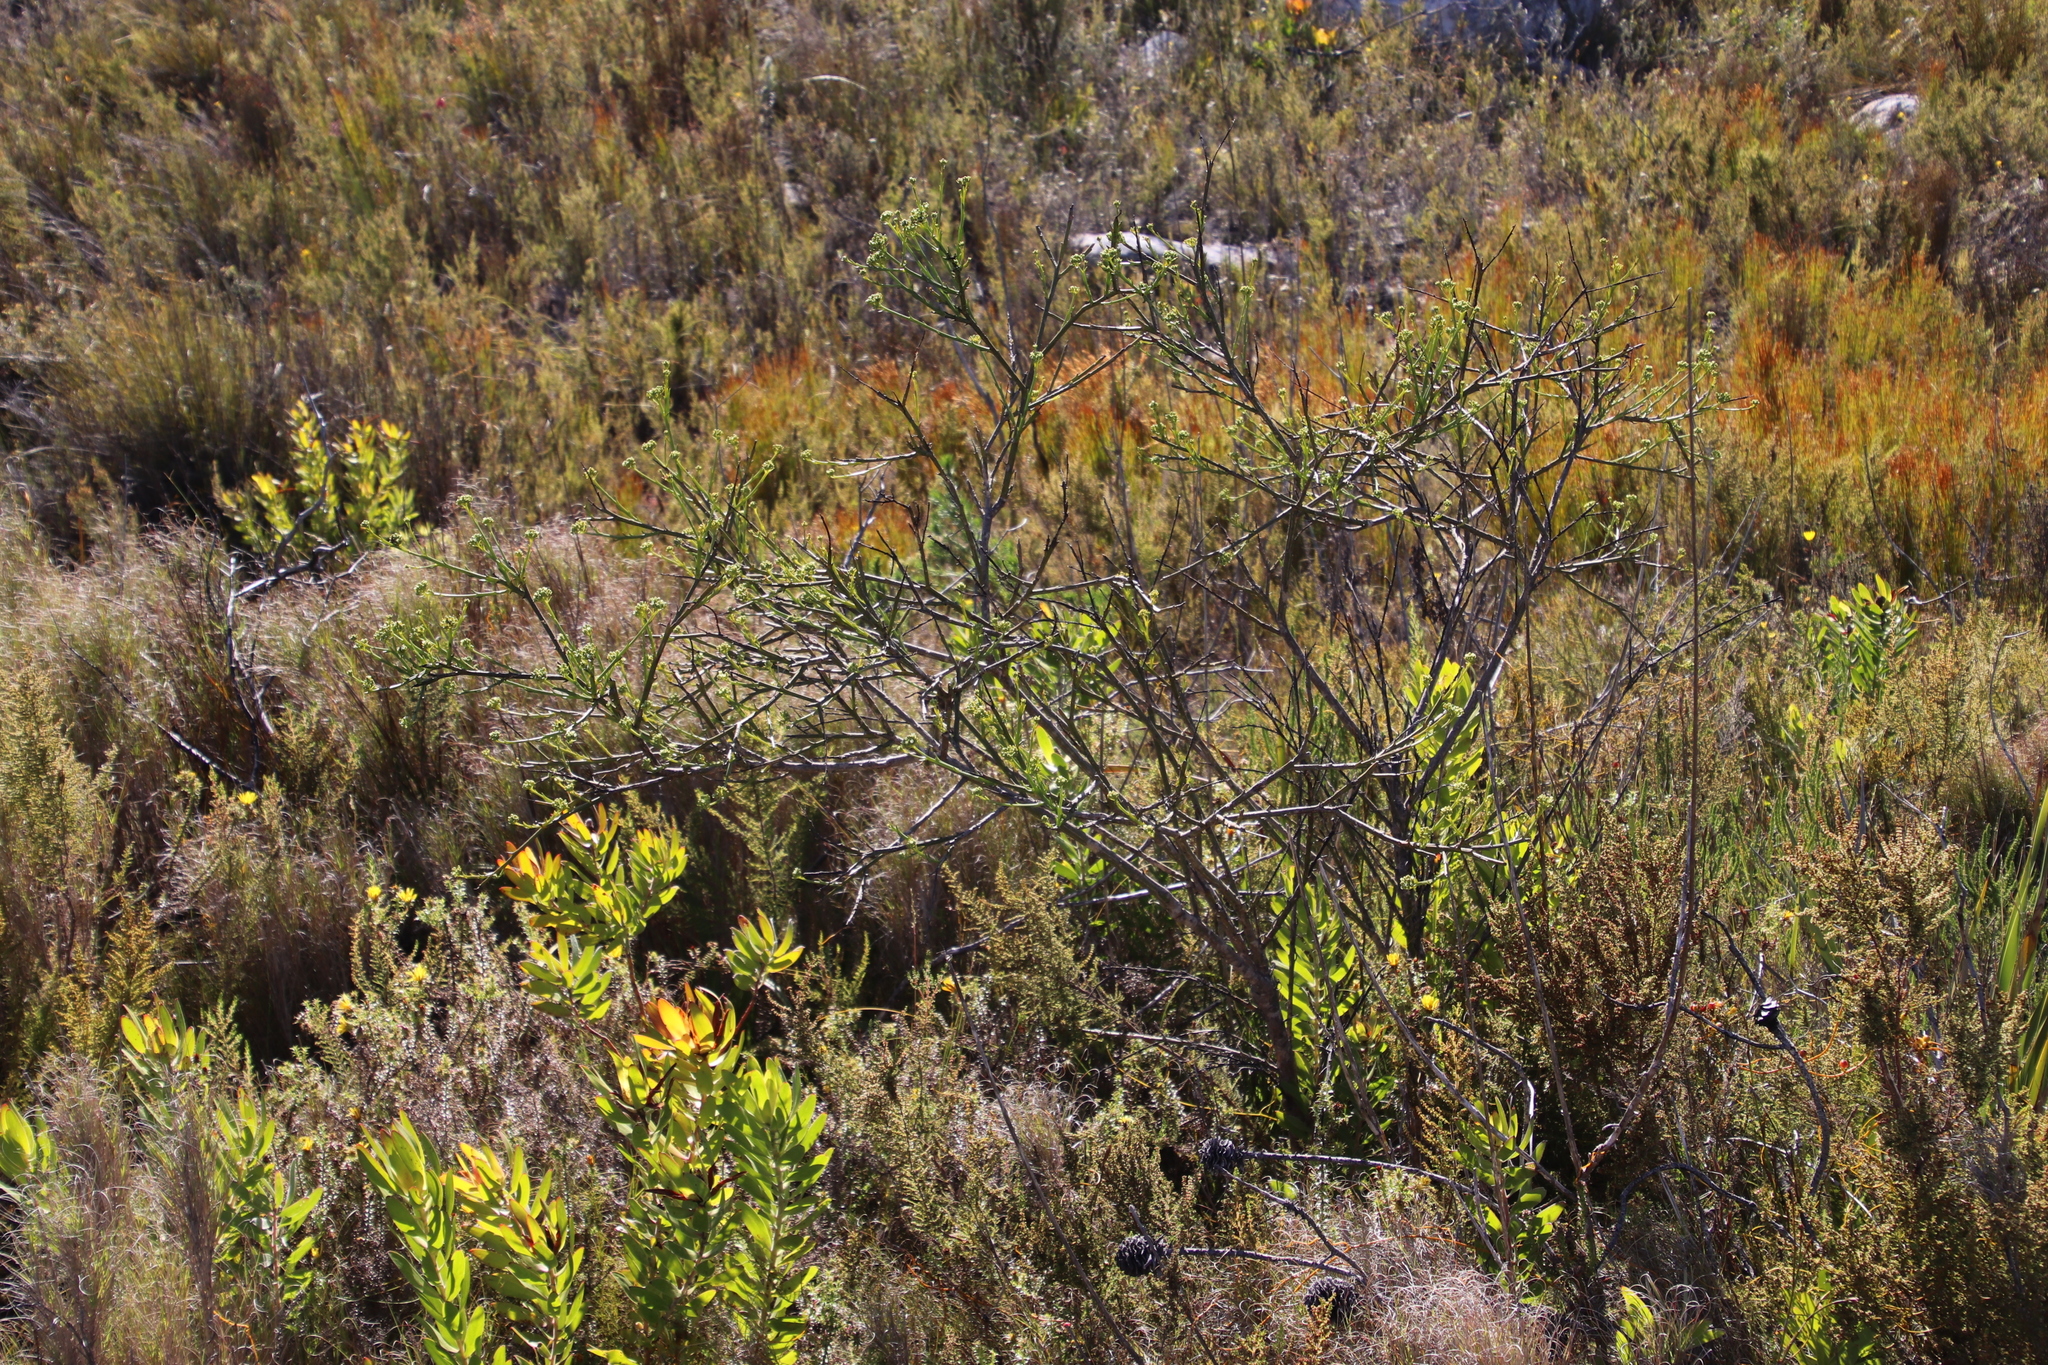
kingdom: Plantae
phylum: Tracheophyta
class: Magnoliopsida
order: Santalales
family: Thesiaceae
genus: Thesium
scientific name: Thesium strictum
